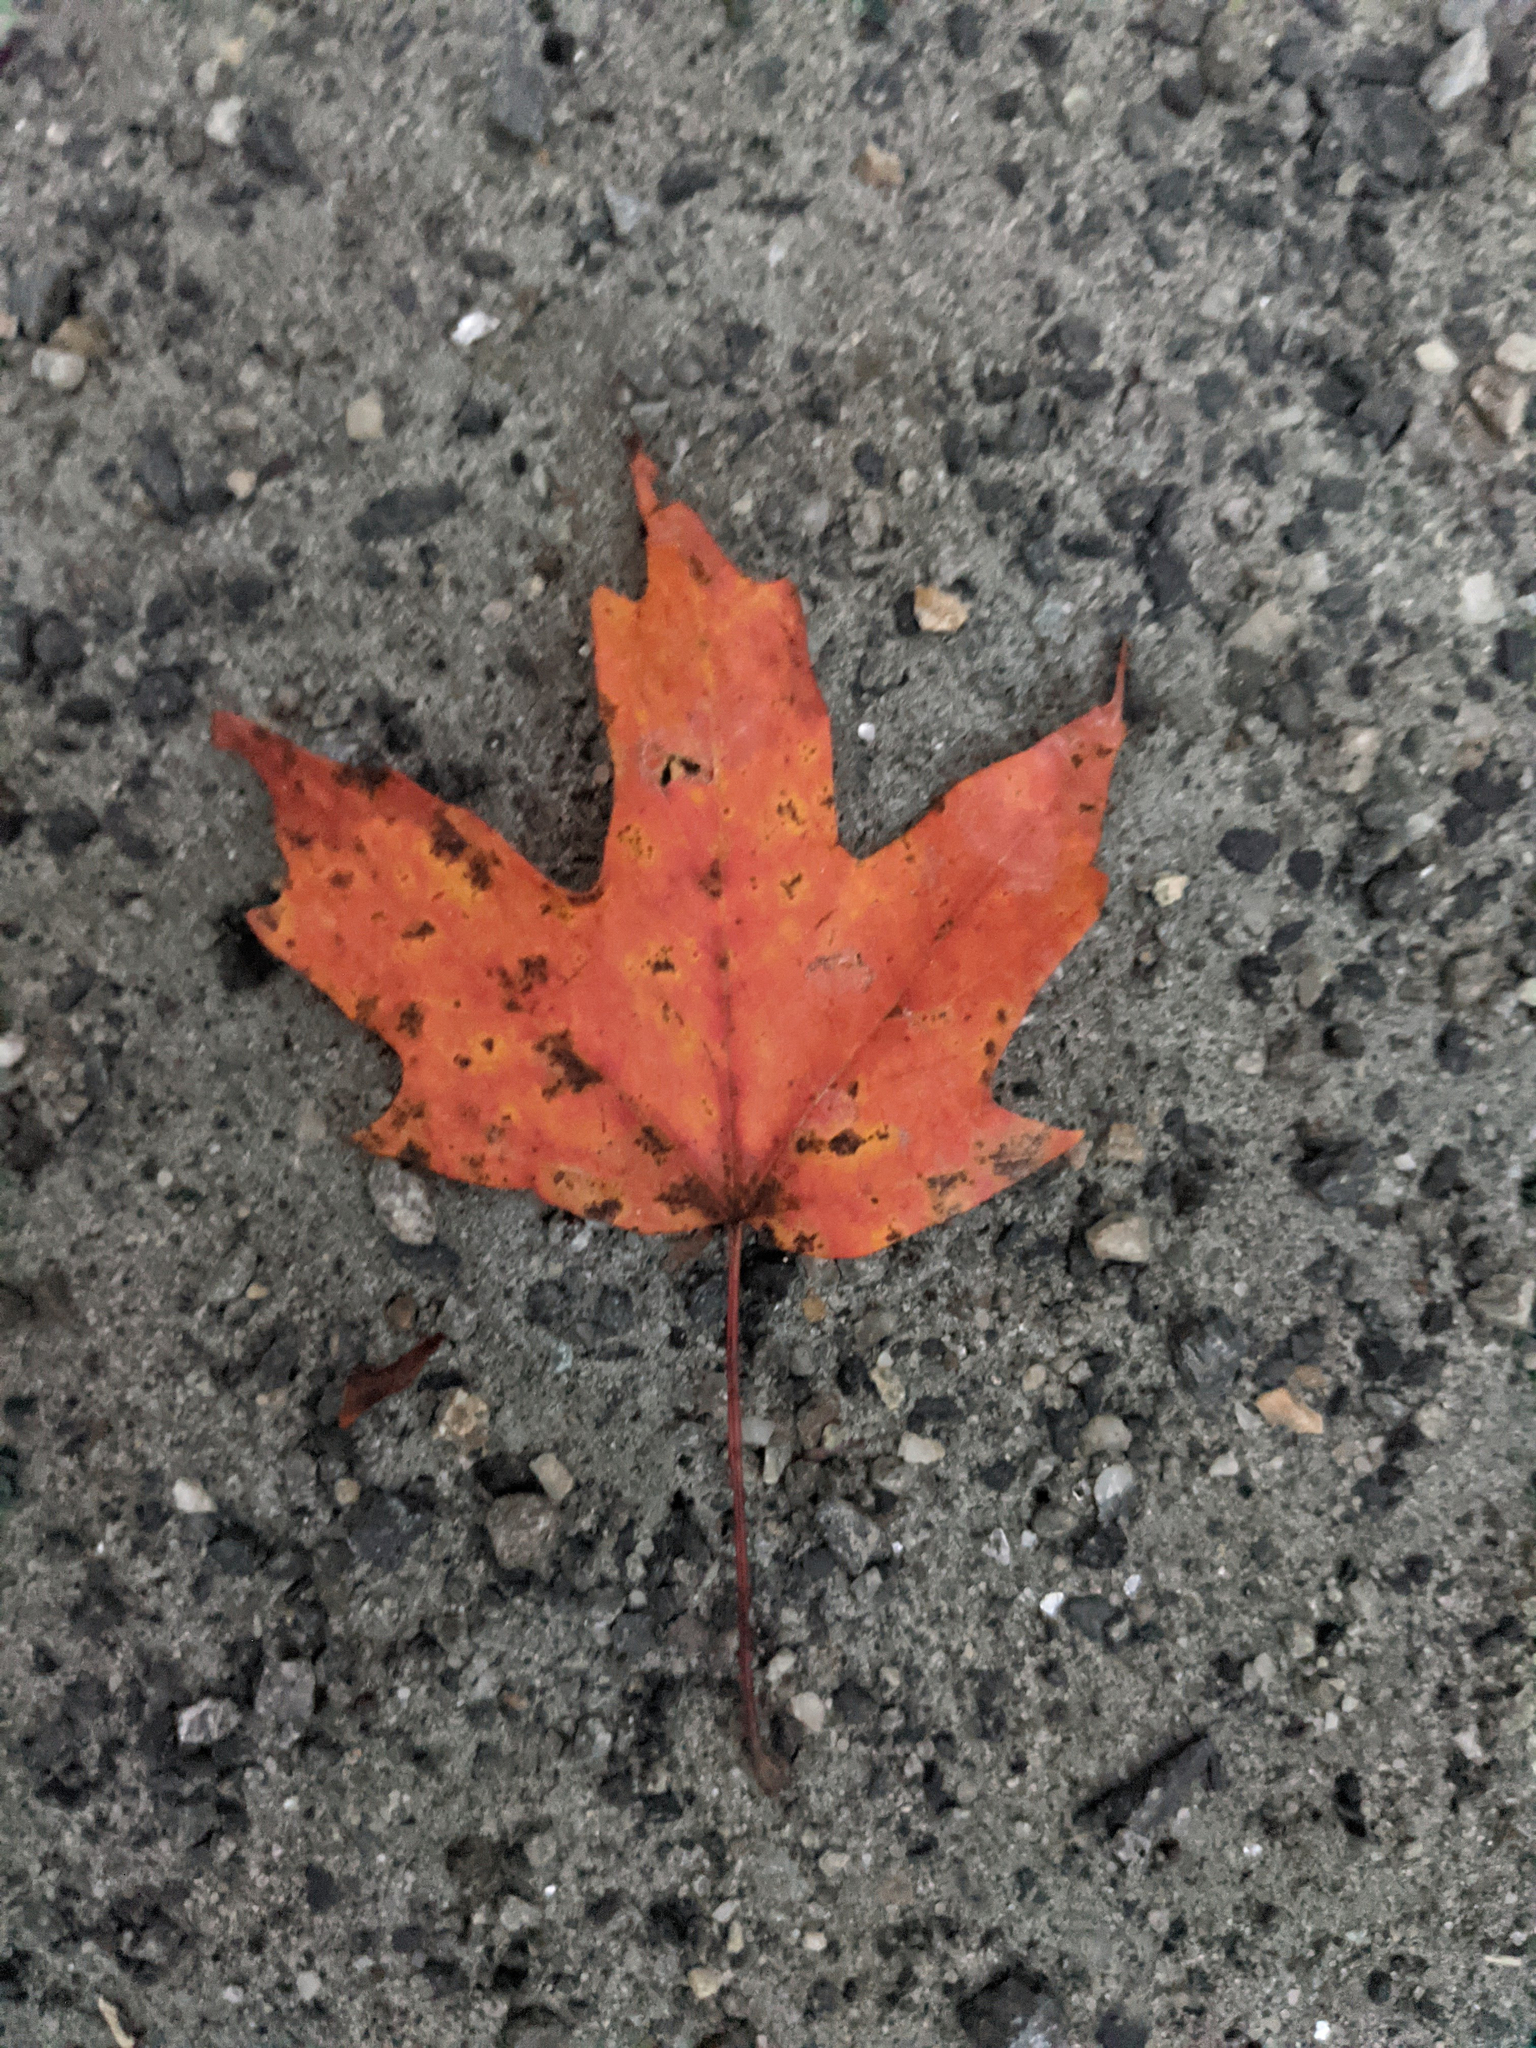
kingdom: Plantae
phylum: Tracheophyta
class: Magnoliopsida
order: Sapindales
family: Sapindaceae
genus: Acer
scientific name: Acer saccharum
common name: Sugar maple
